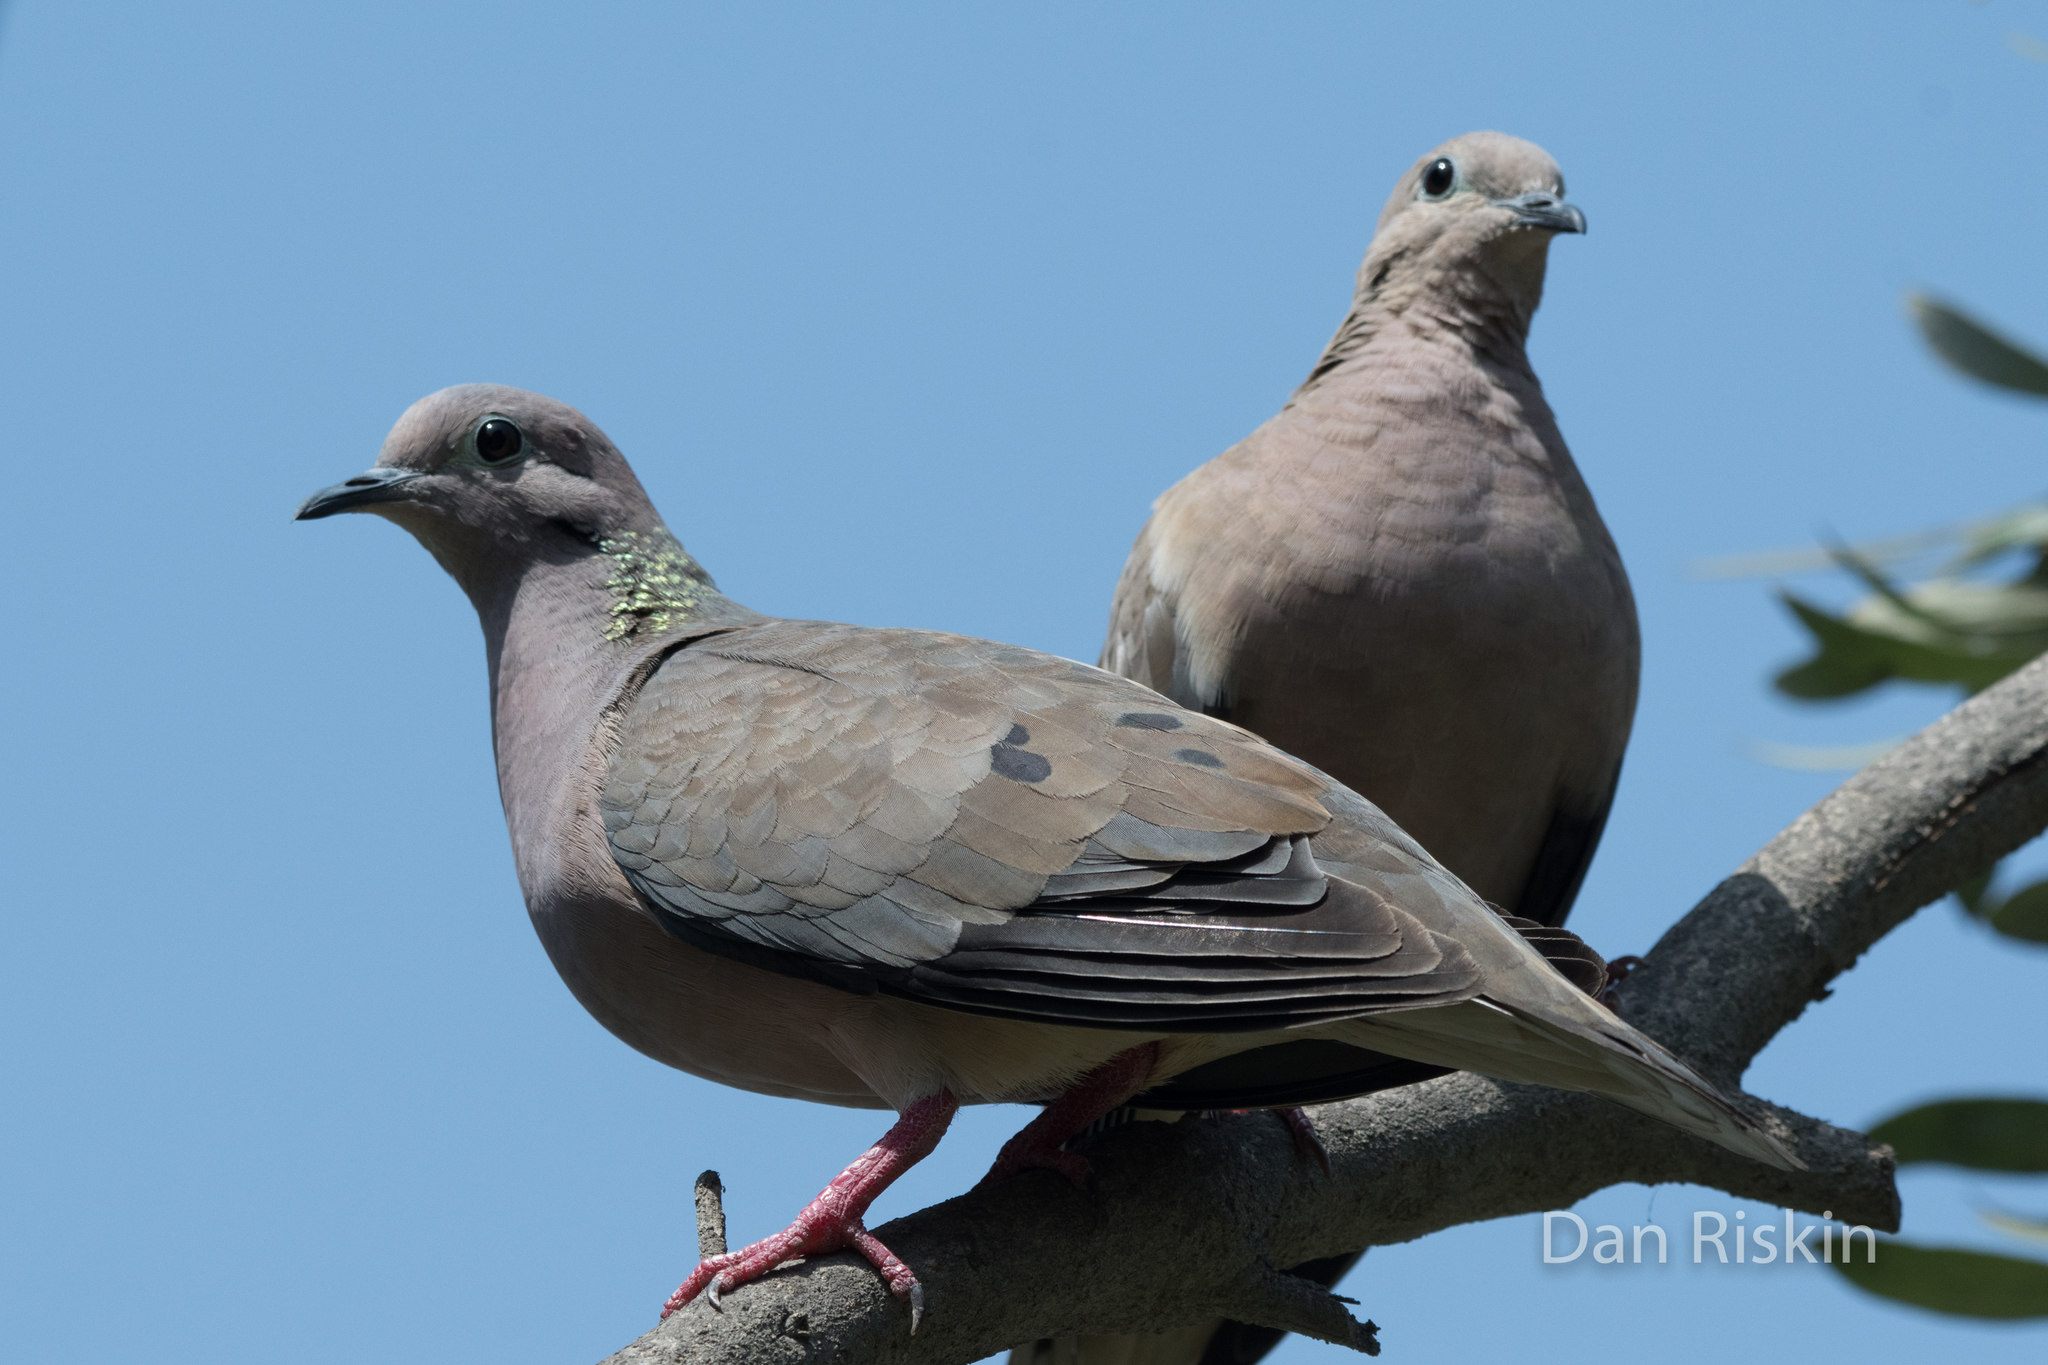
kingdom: Animalia
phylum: Chordata
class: Aves
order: Columbiformes
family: Columbidae
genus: Zenaida
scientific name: Zenaida auriculata
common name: Eared dove
